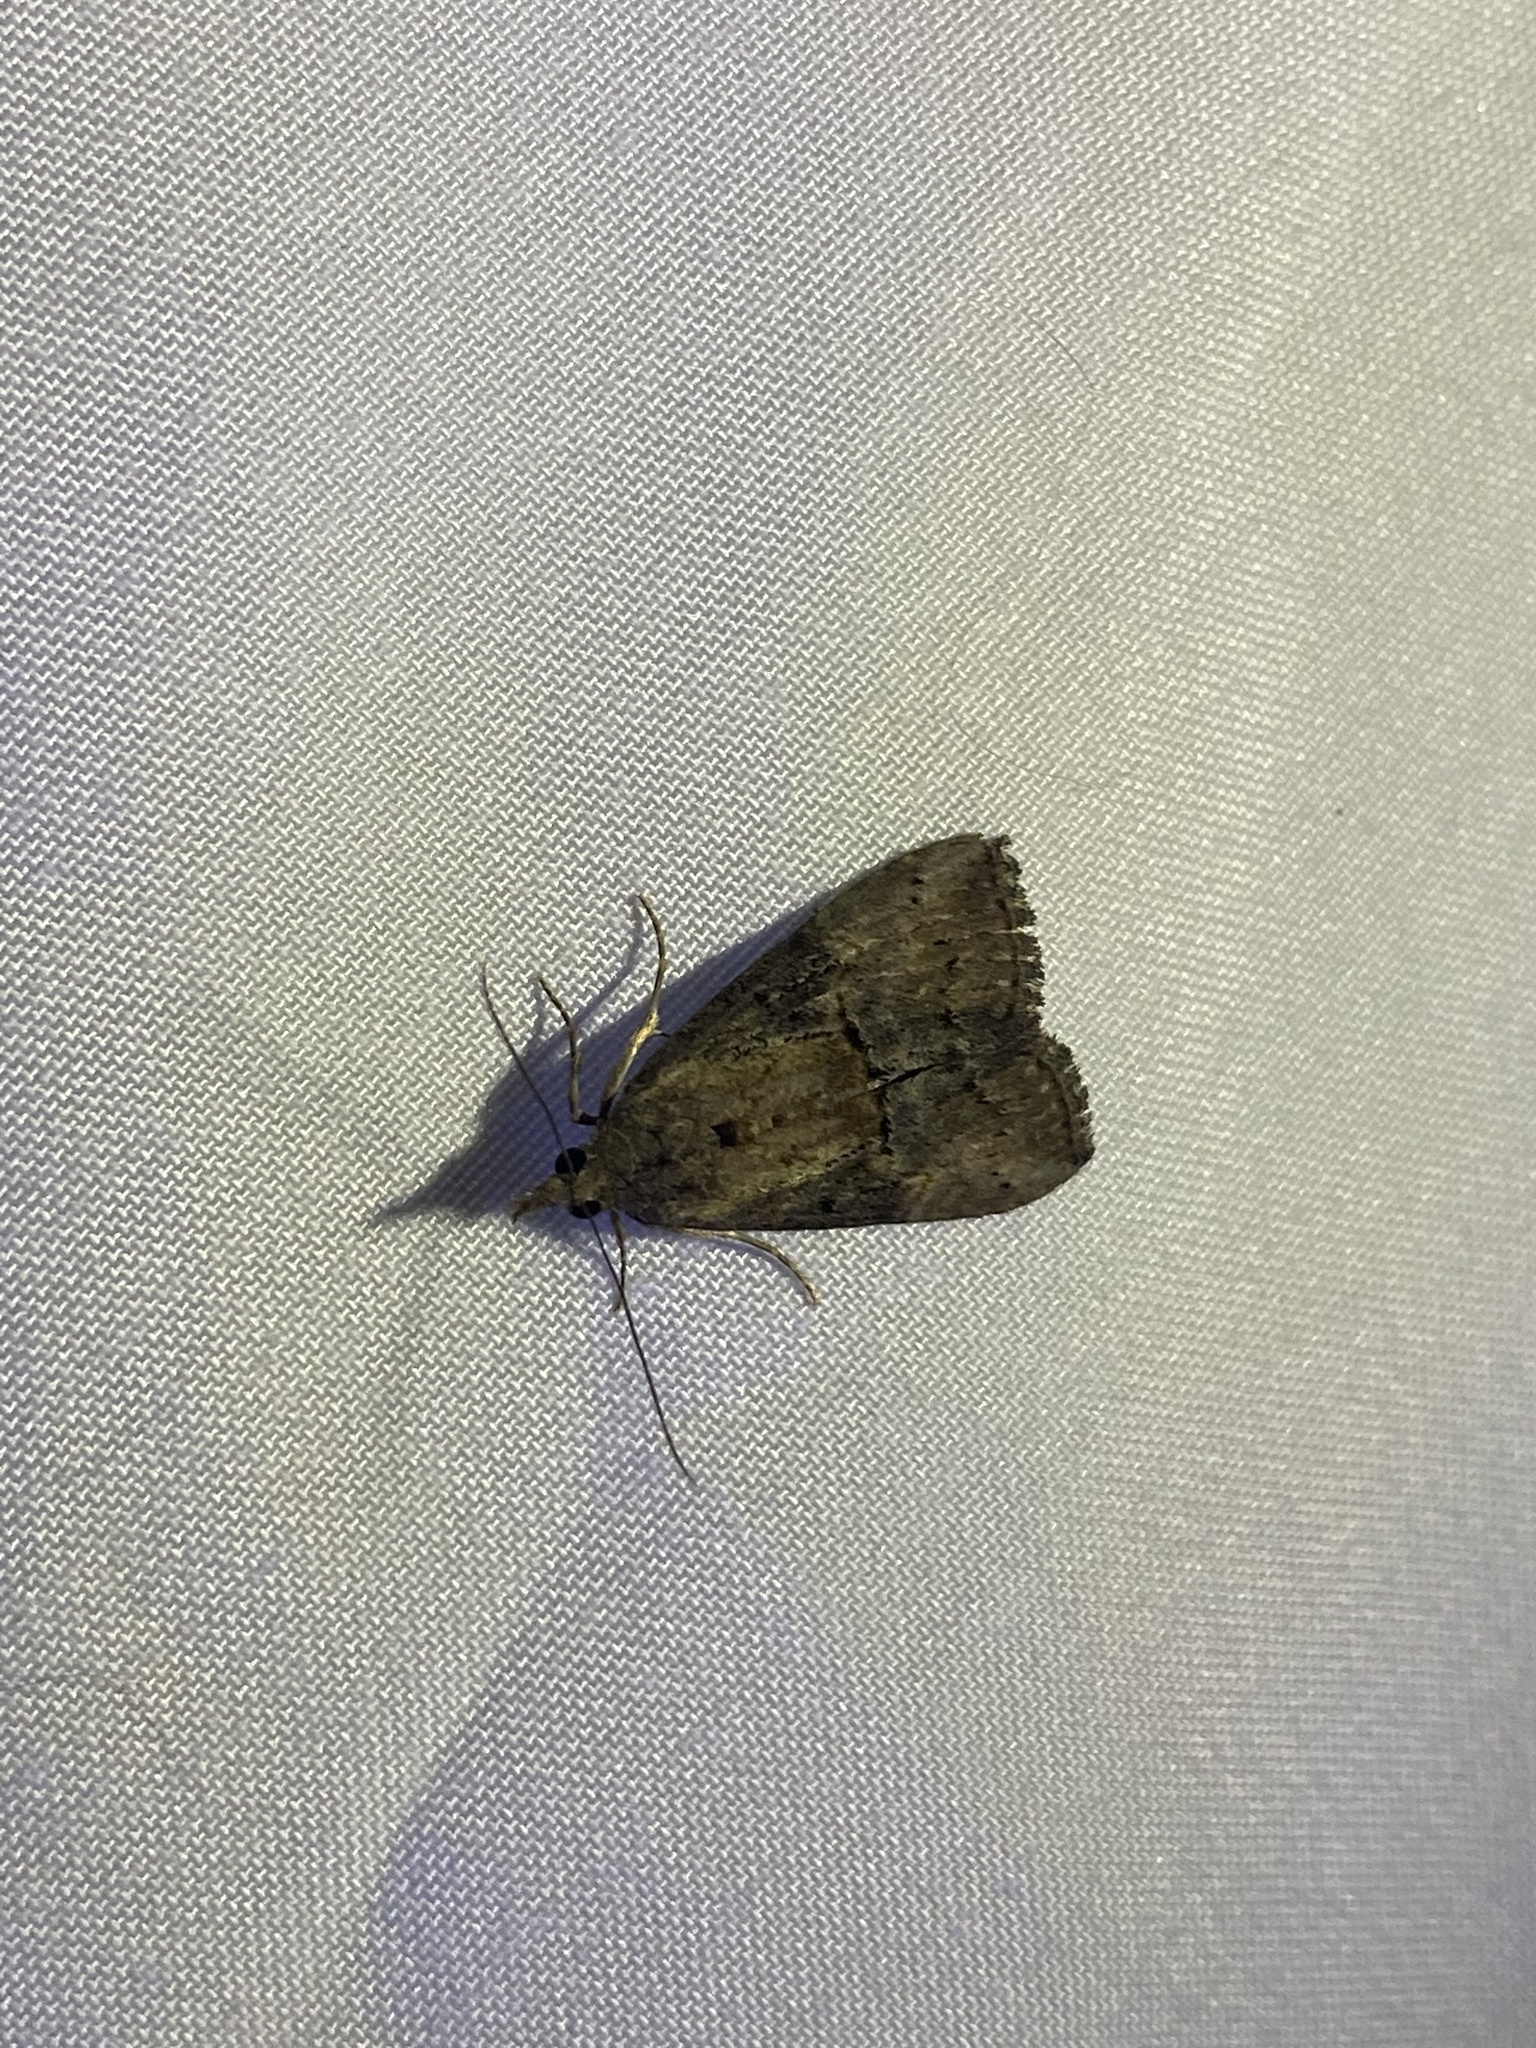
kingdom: Animalia
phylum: Arthropoda
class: Insecta
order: Lepidoptera
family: Erebidae
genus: Hypena
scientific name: Hypena scabra
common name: Green cloverworm
